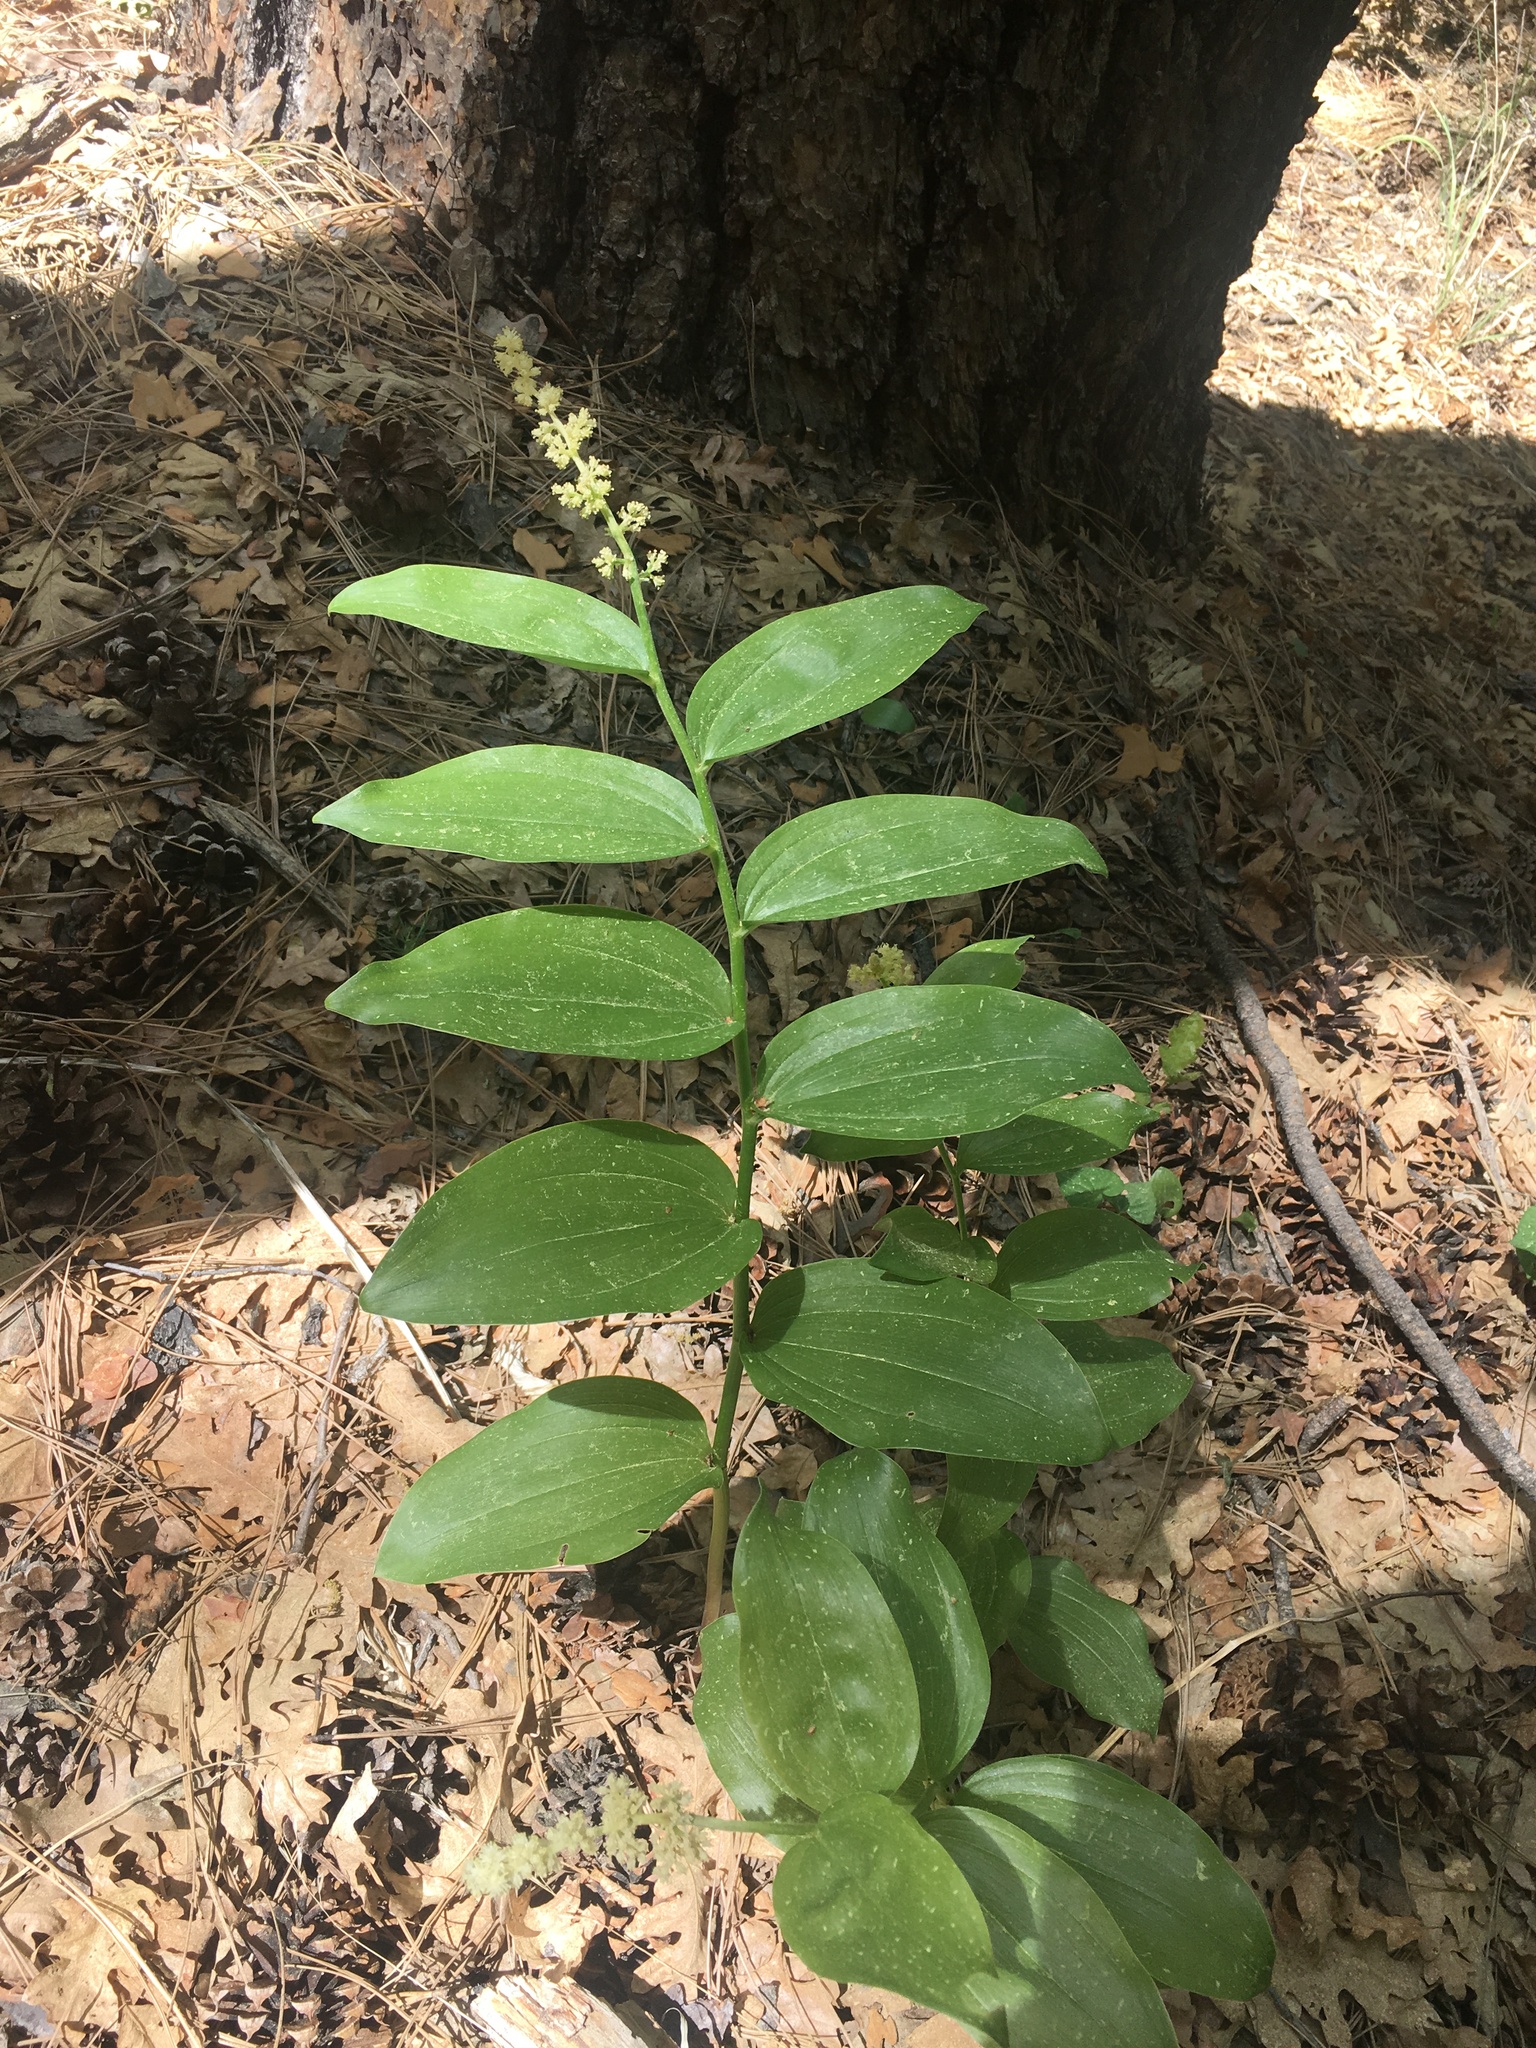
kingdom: Plantae
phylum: Tracheophyta
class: Liliopsida
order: Asparagales
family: Asparagaceae
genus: Maianthemum
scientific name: Maianthemum racemosum
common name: False spikenard
